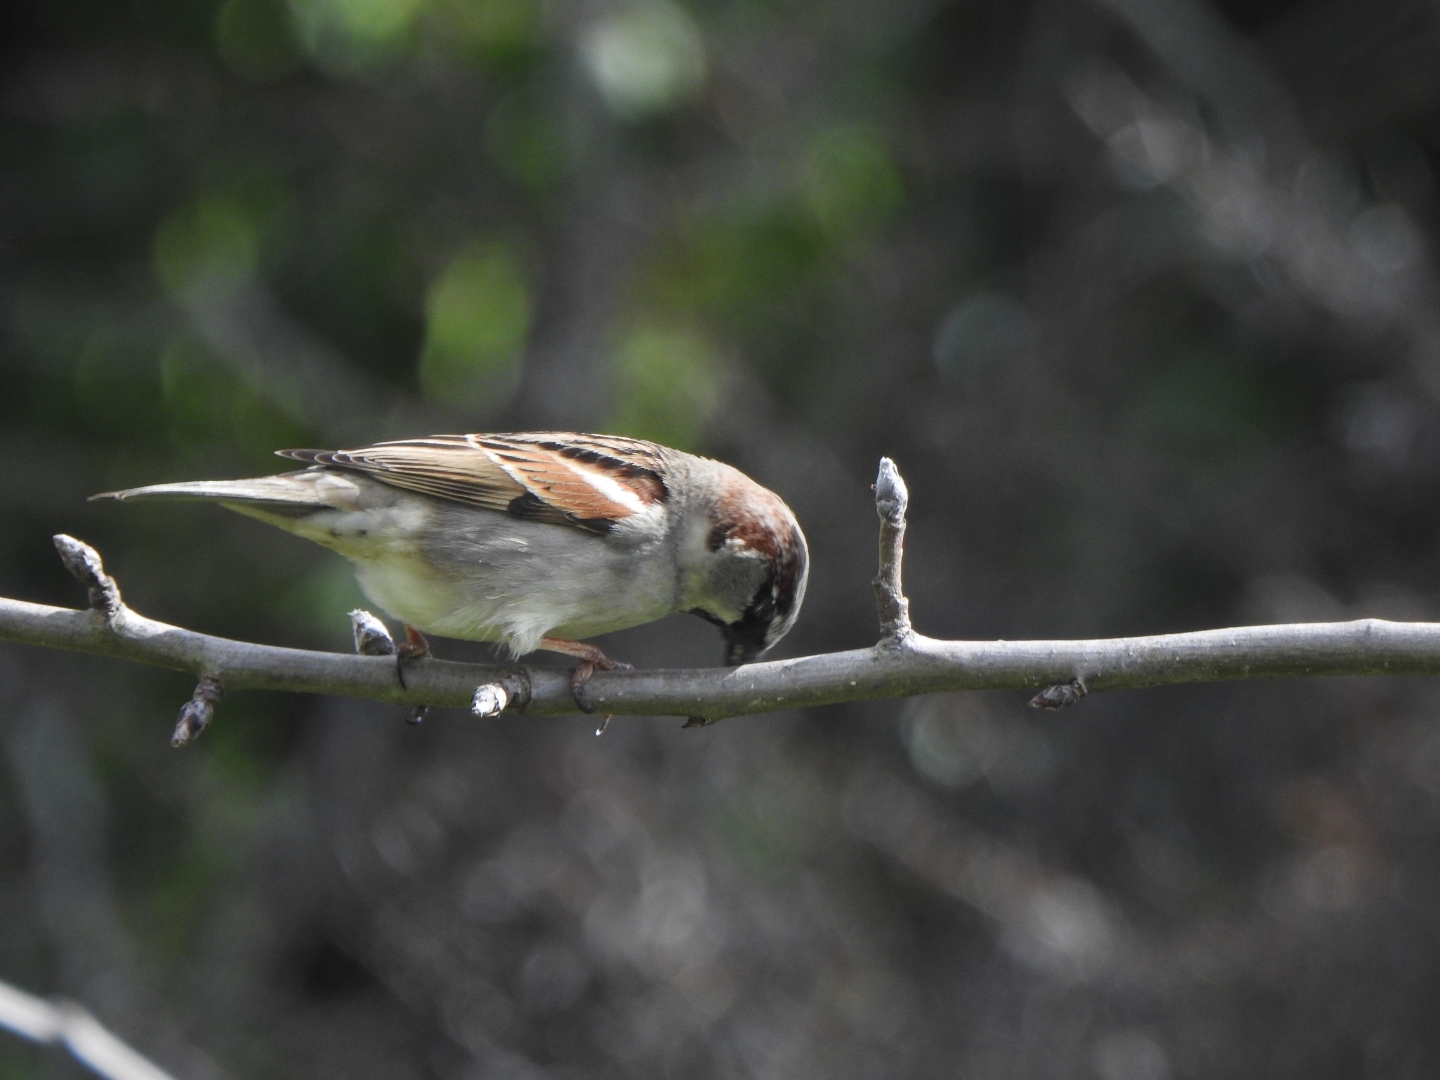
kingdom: Animalia
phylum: Chordata
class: Aves
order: Passeriformes
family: Passeridae
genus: Passer
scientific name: Passer domesticus
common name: House sparrow
